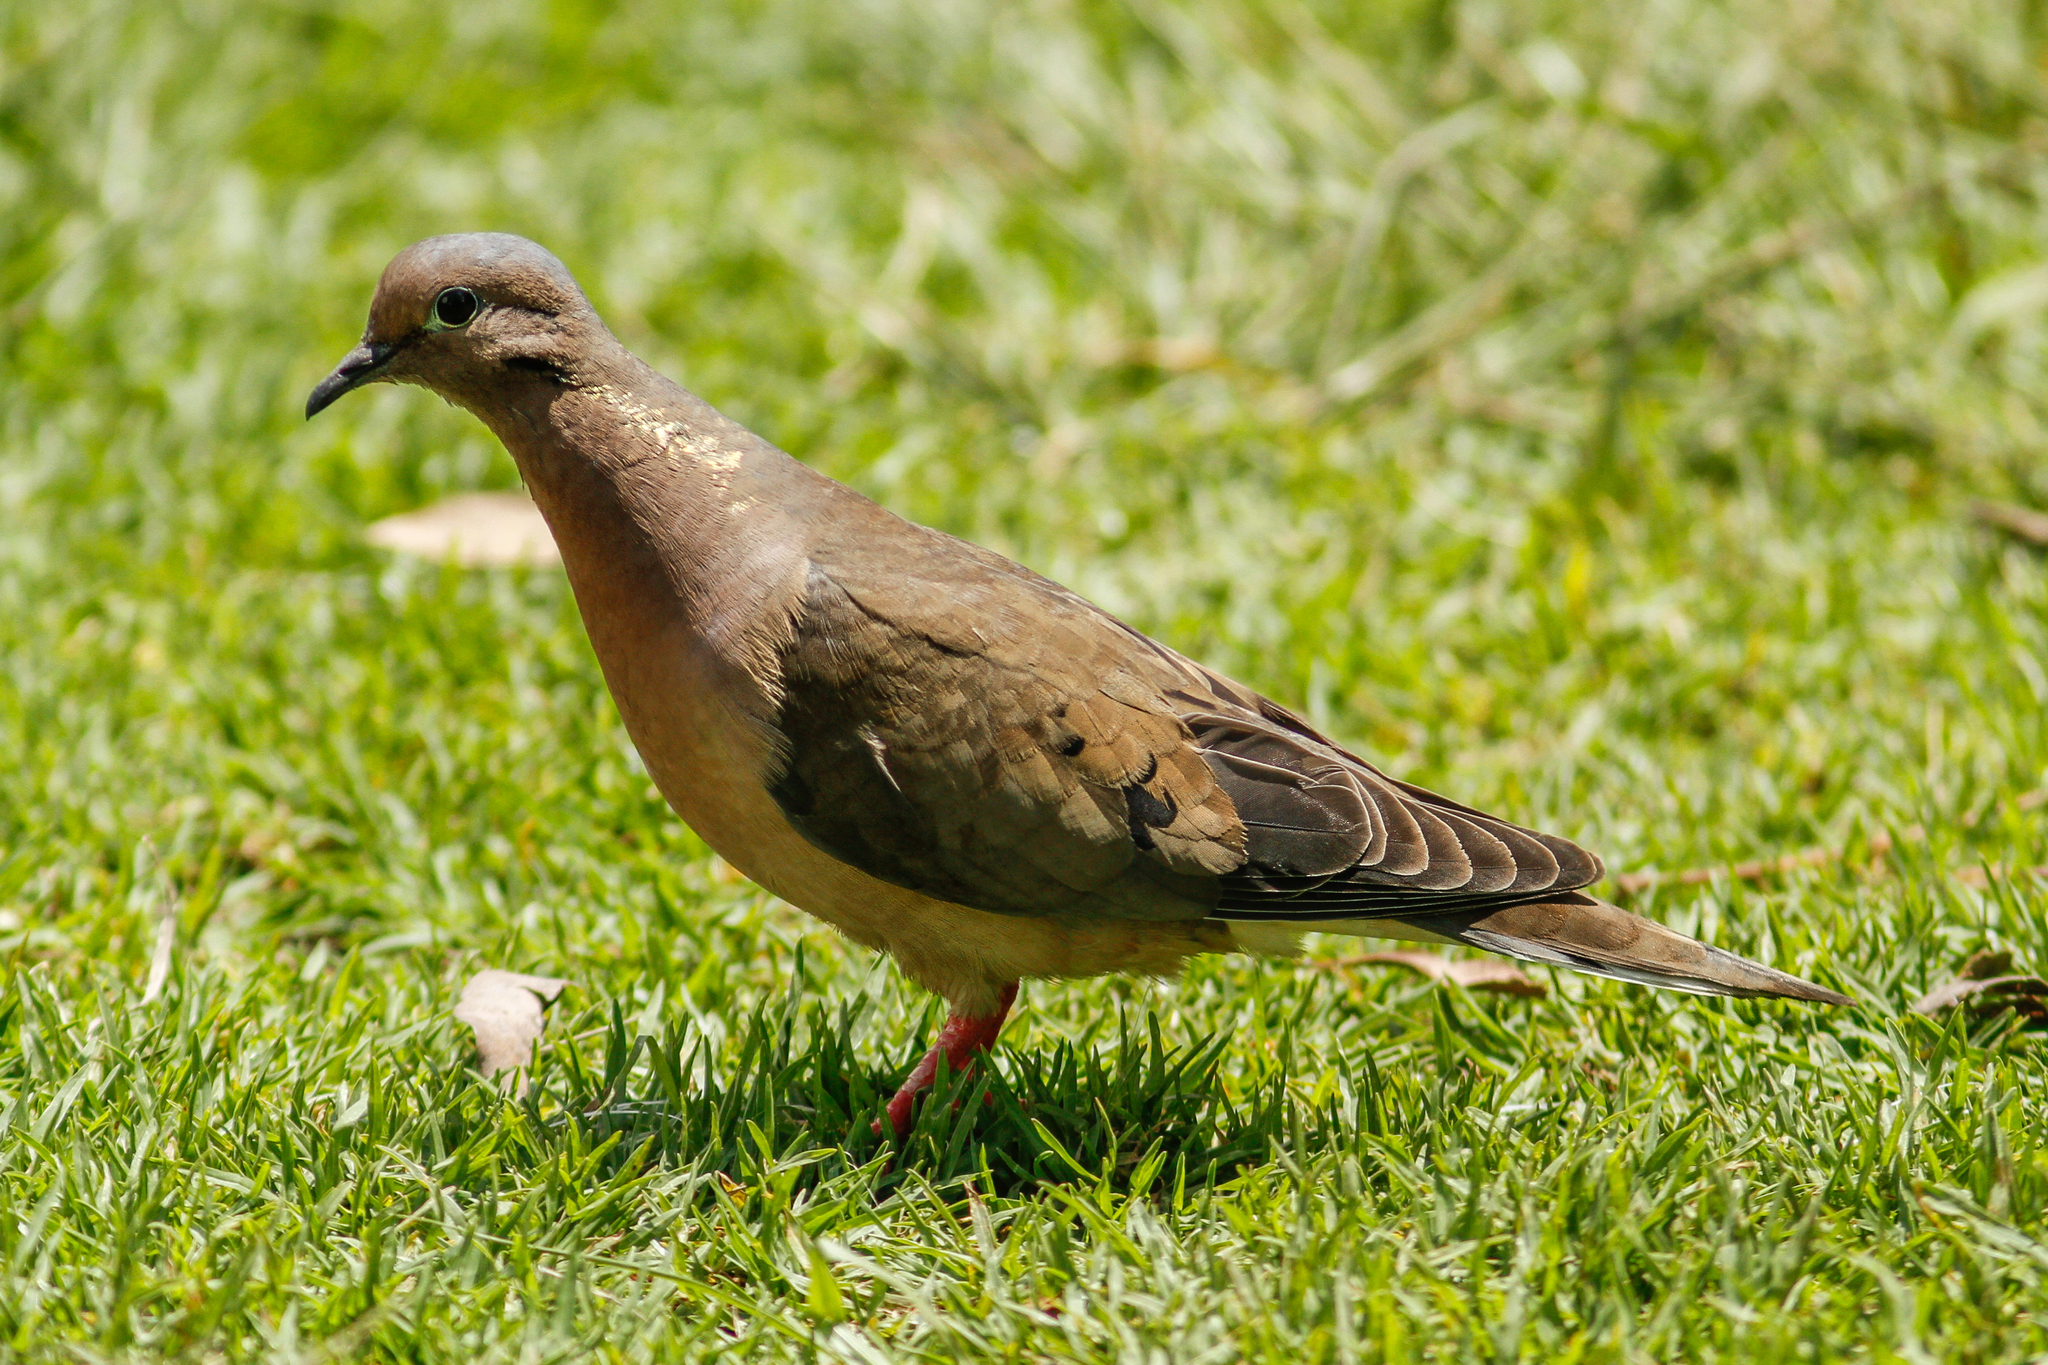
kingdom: Animalia
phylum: Chordata
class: Aves
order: Columbiformes
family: Columbidae
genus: Zenaida
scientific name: Zenaida auriculata
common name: Eared dove
